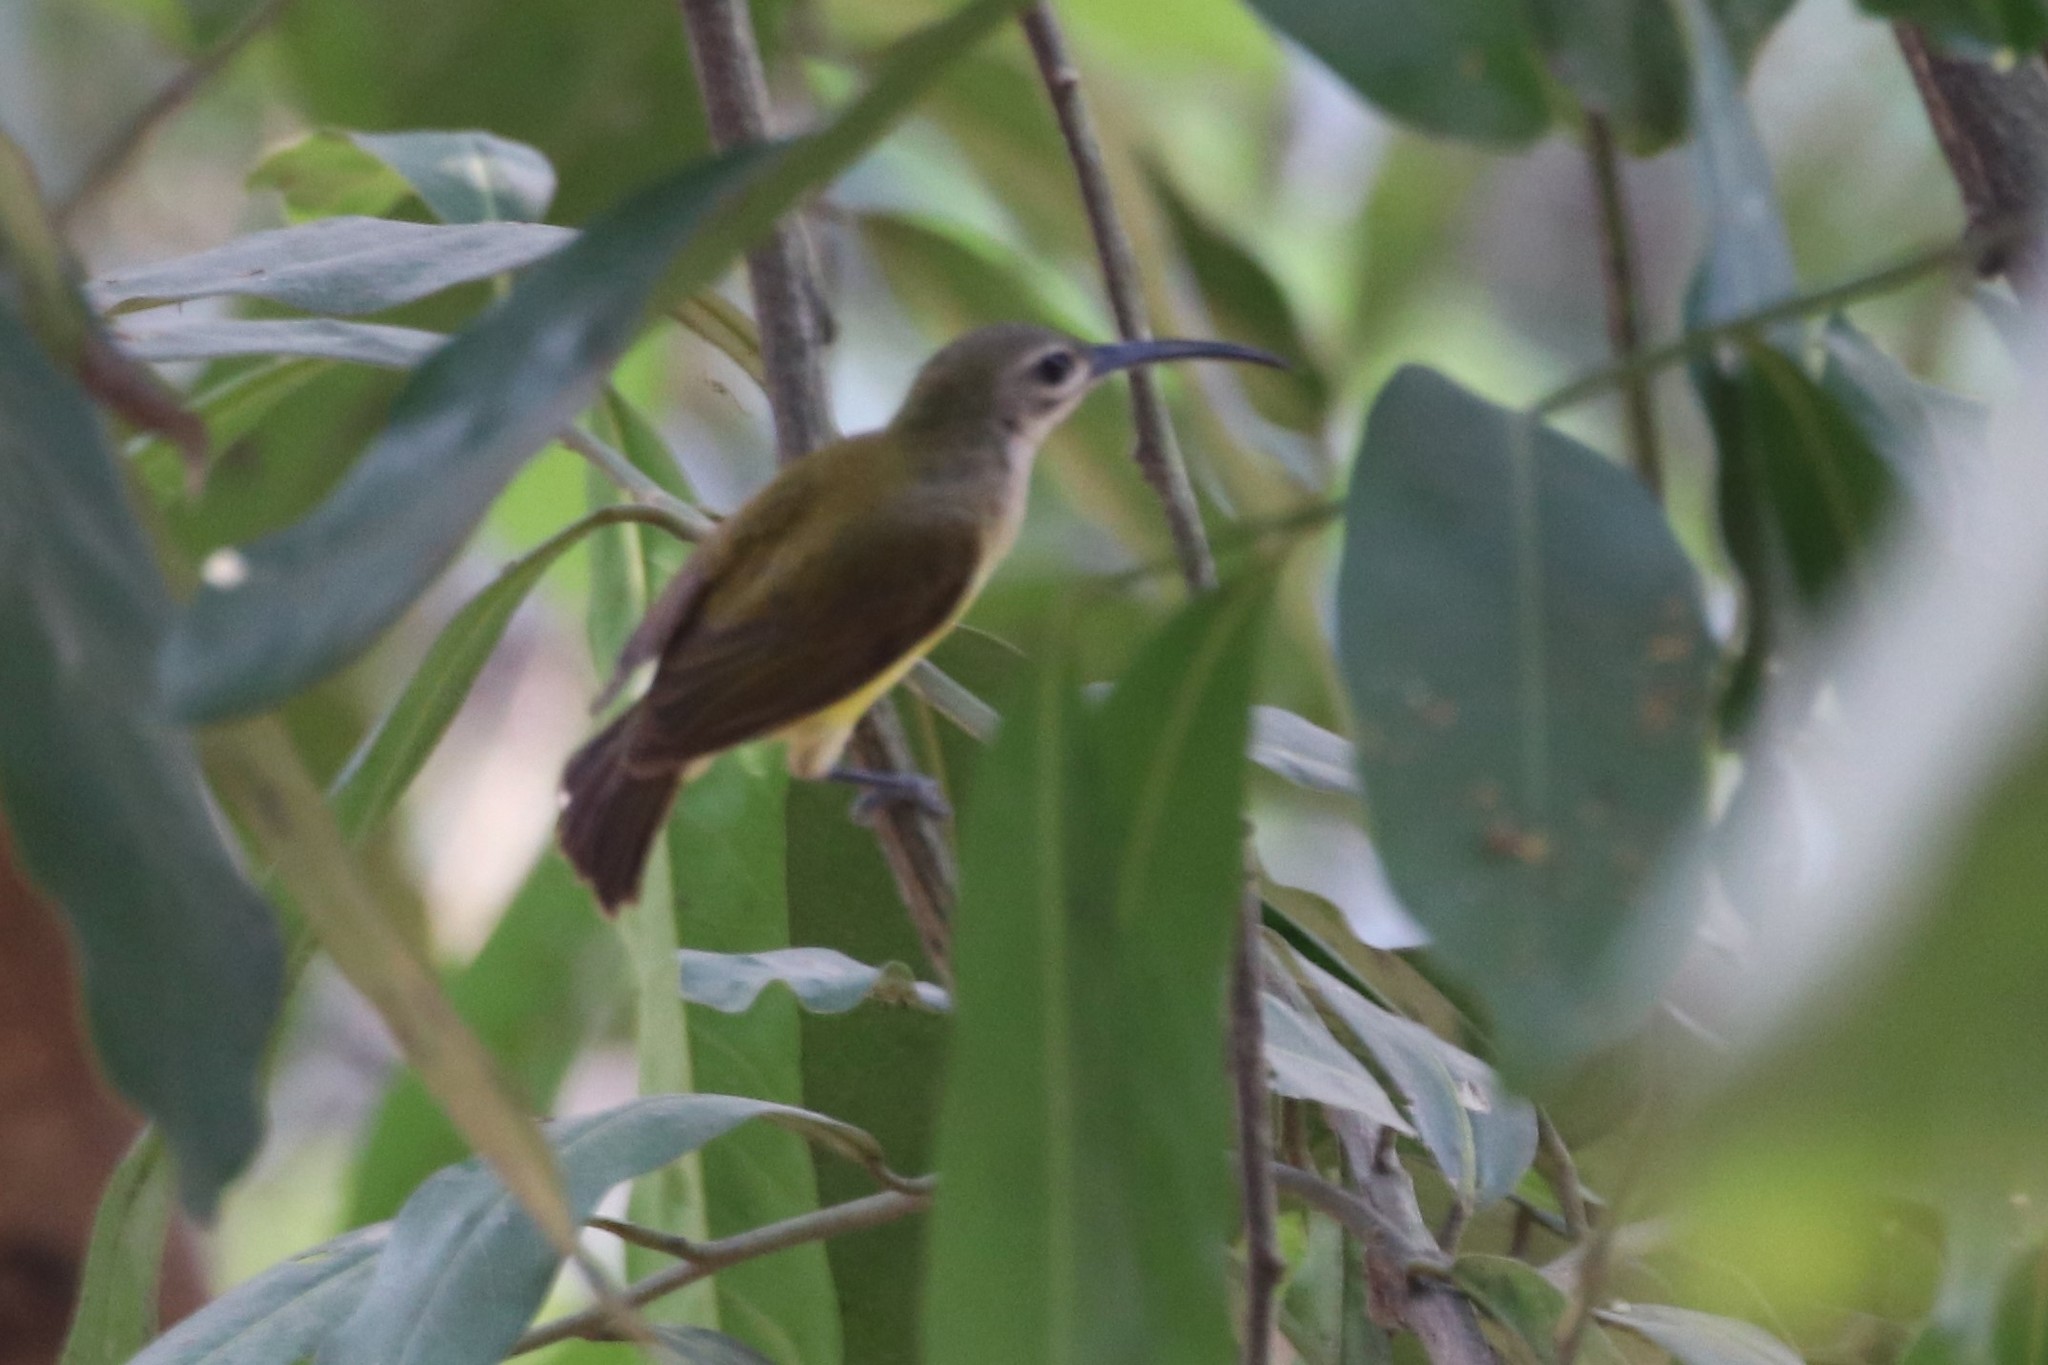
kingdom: Animalia
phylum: Chordata
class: Aves
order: Passeriformes
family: Nectariniidae
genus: Arachnothera
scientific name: Arachnothera longirostra
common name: Little spiderhunter
